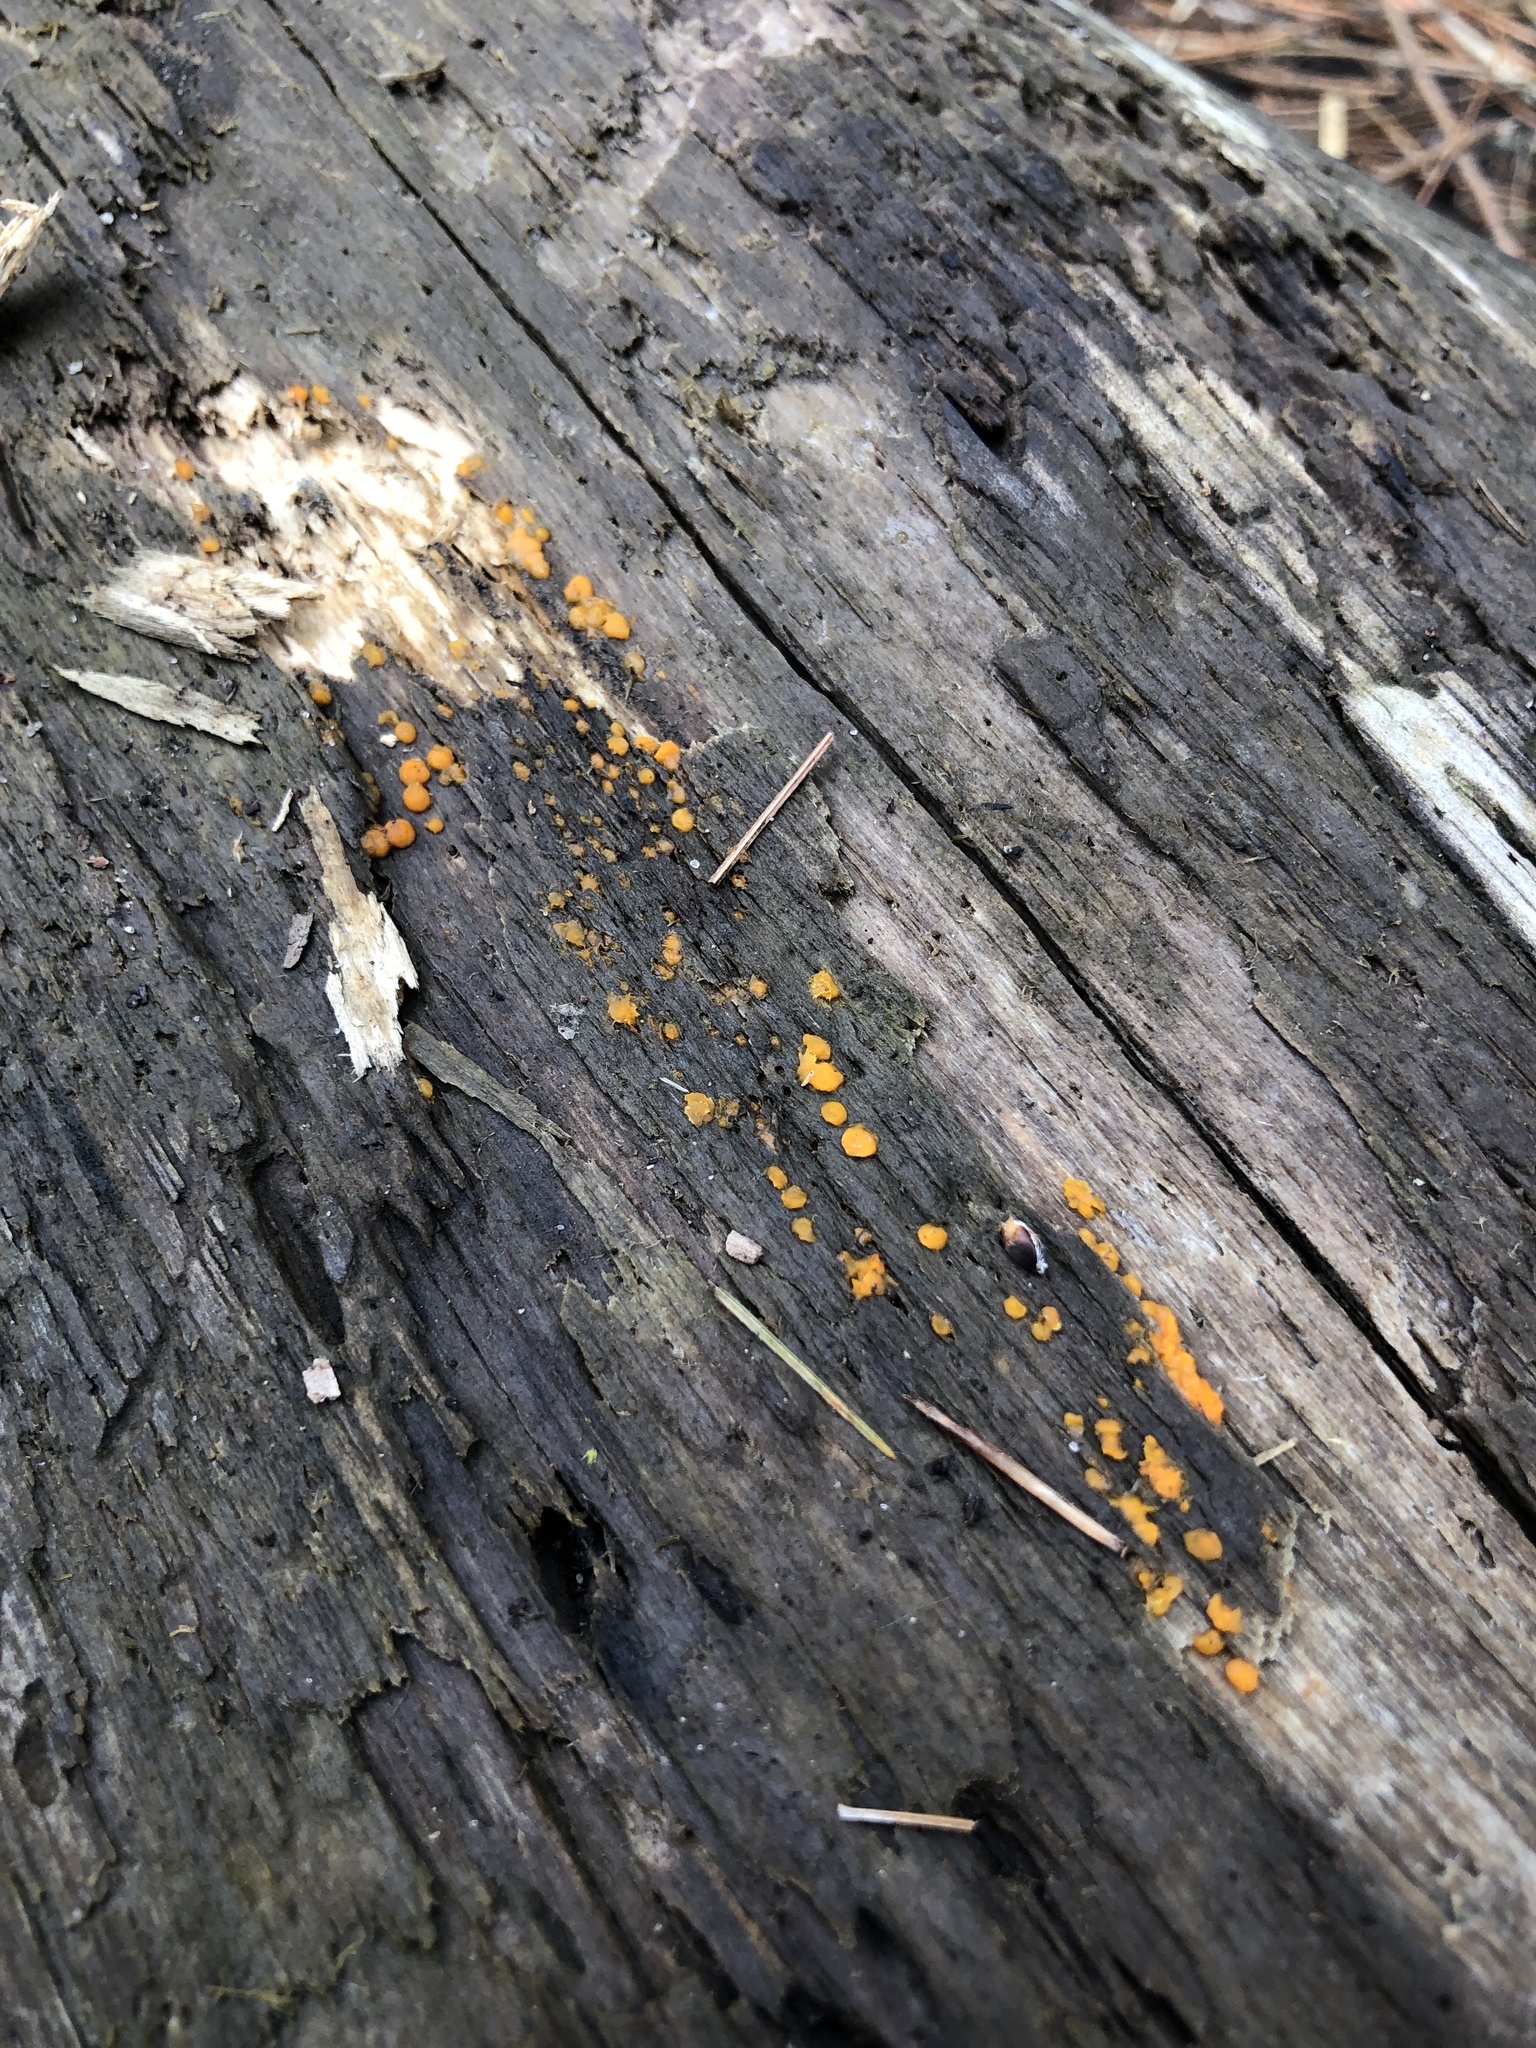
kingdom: Fungi
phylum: Basidiomycota
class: Dacrymycetes
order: Dacrymycetales
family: Dacrymycetaceae
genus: Dacrymyces
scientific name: Dacrymyces chrysospermus
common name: Orange jelly spot
